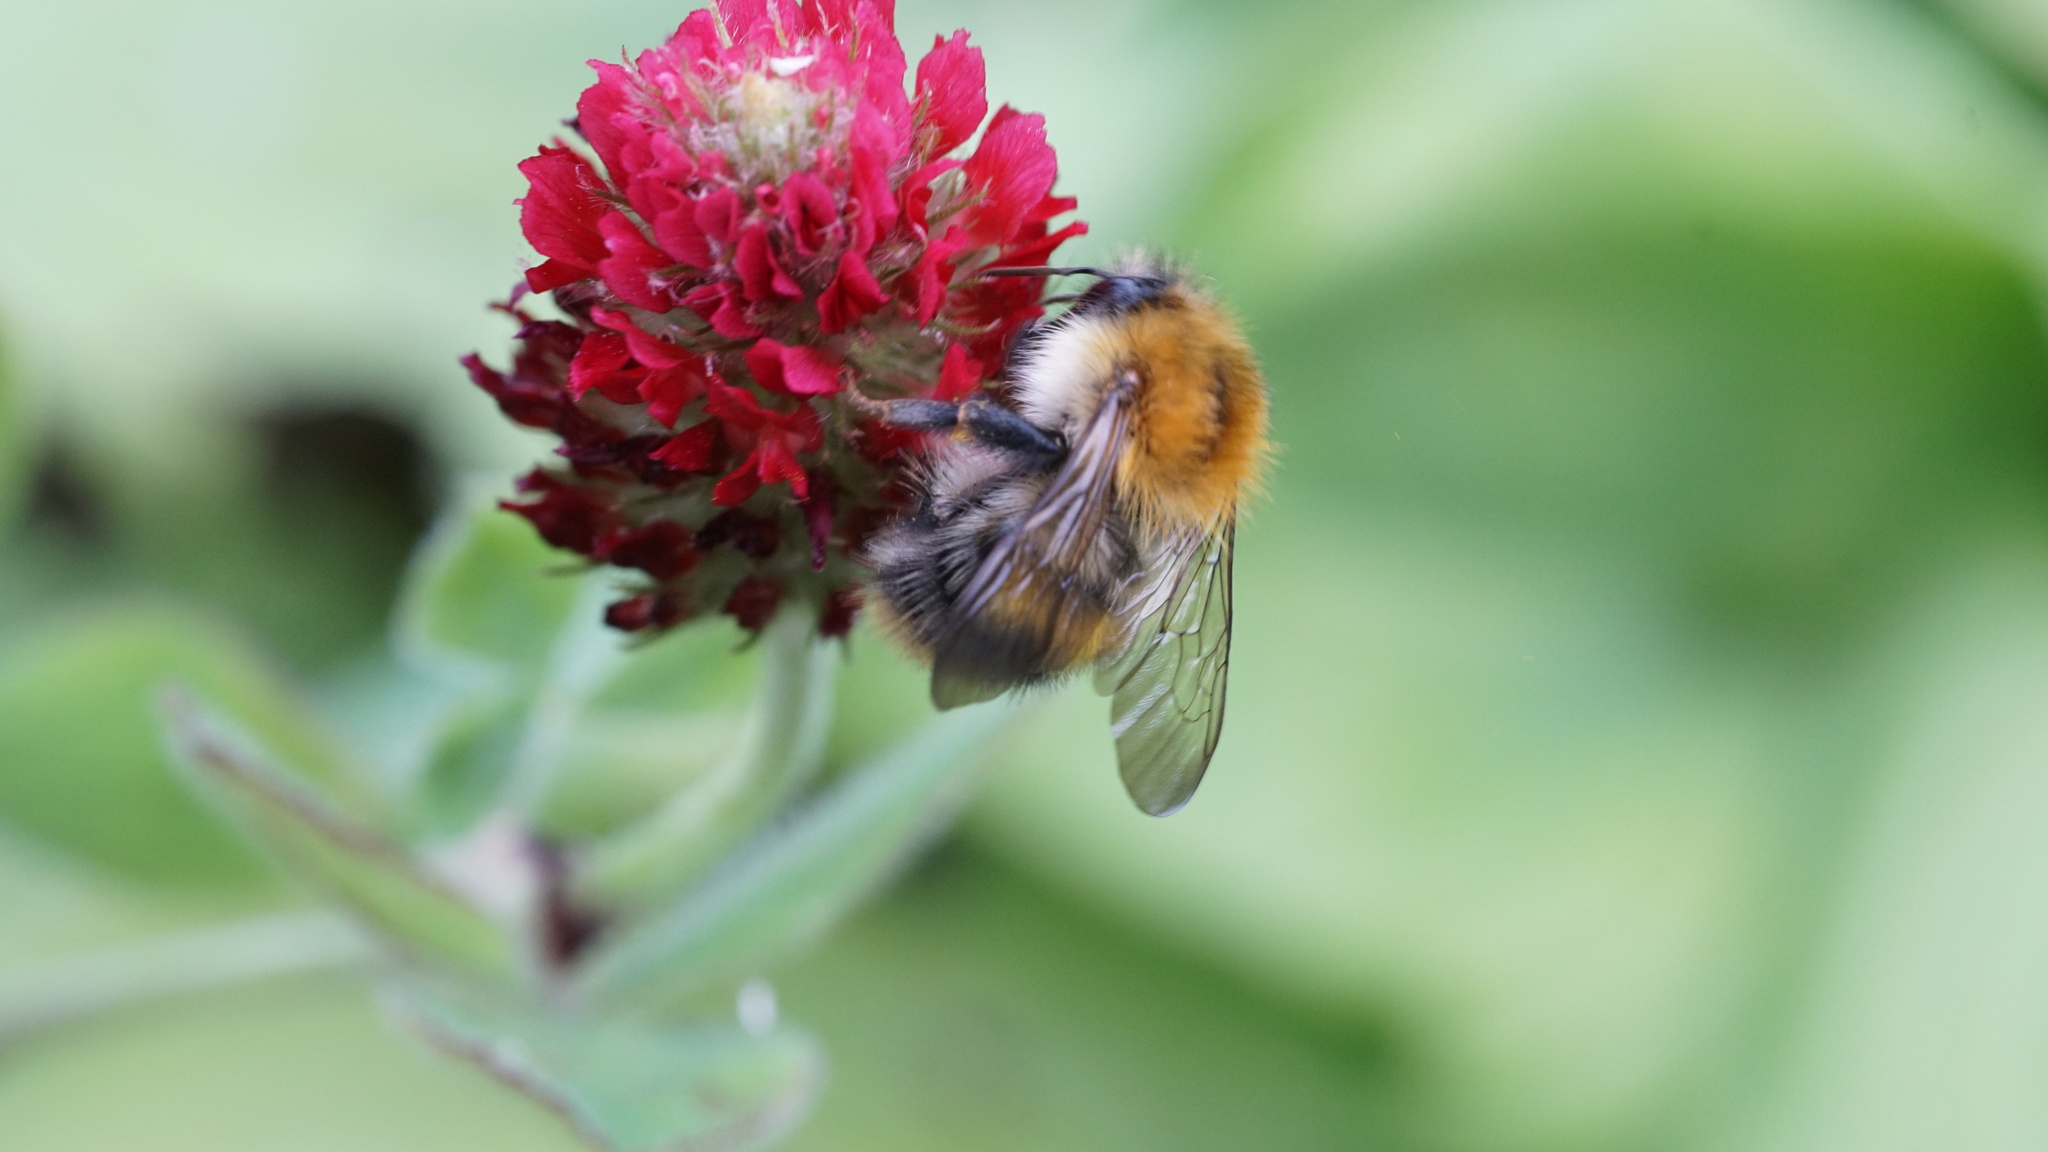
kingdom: Animalia
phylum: Arthropoda
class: Insecta
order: Hymenoptera
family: Apidae
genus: Bombus
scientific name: Bombus pascuorum
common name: Common carder bee
